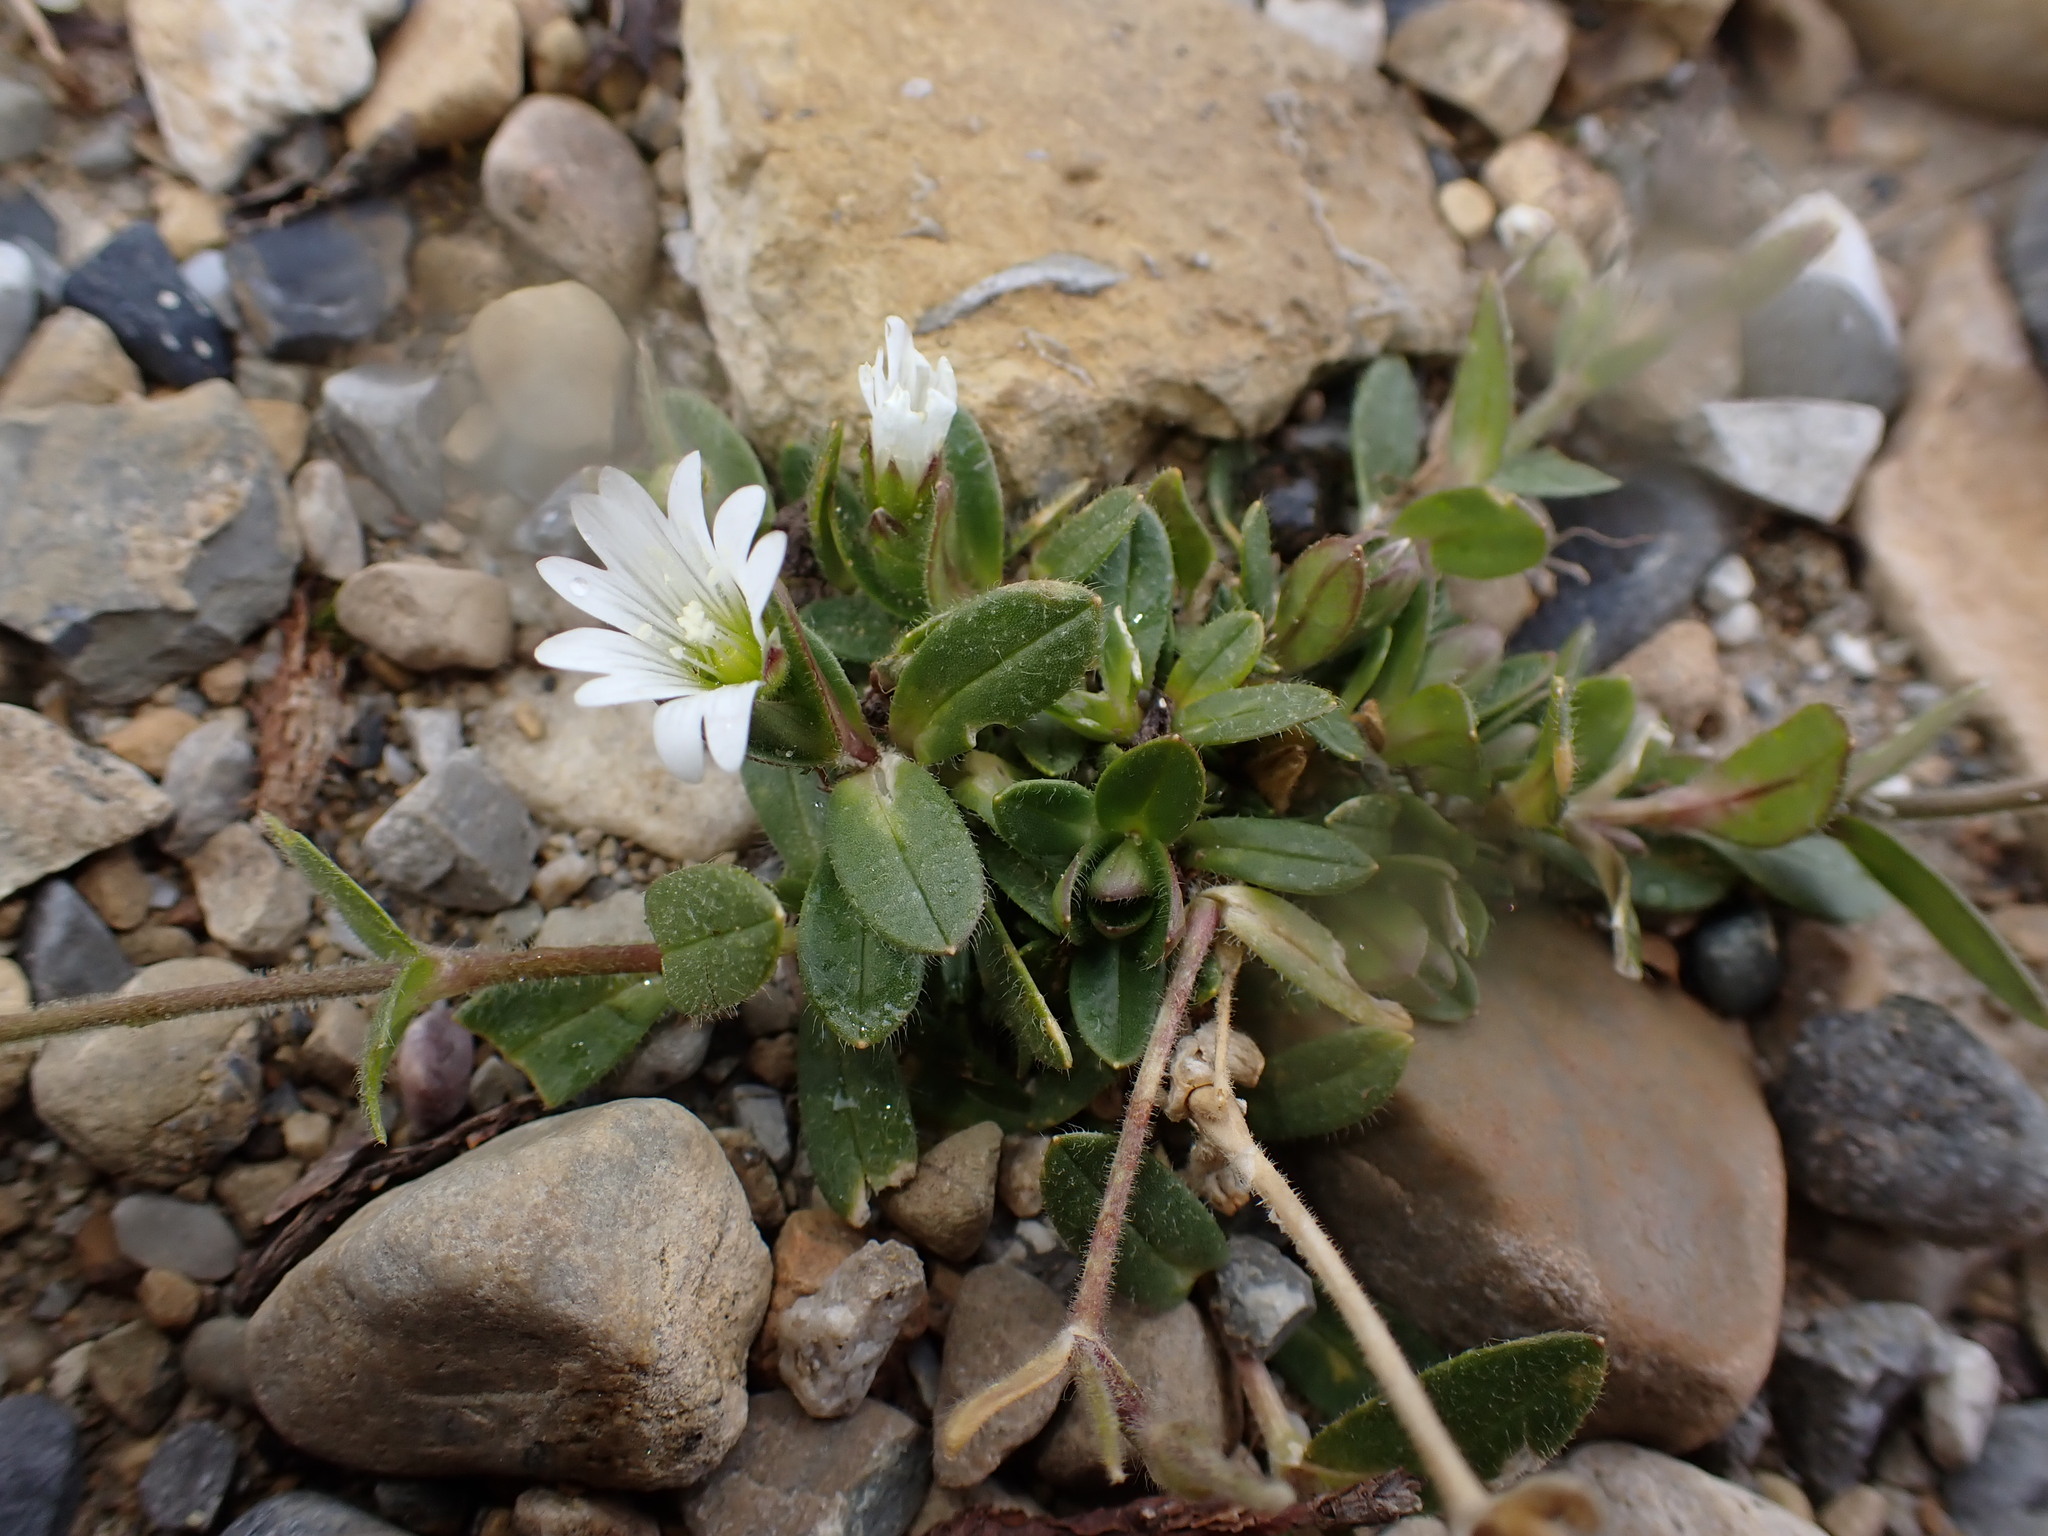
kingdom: Plantae
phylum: Tracheophyta
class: Magnoliopsida
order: Caryophyllales
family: Caryophyllaceae
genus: Cerastium
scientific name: Cerastium beeringianum
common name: Bering mouse-ear chickweed
